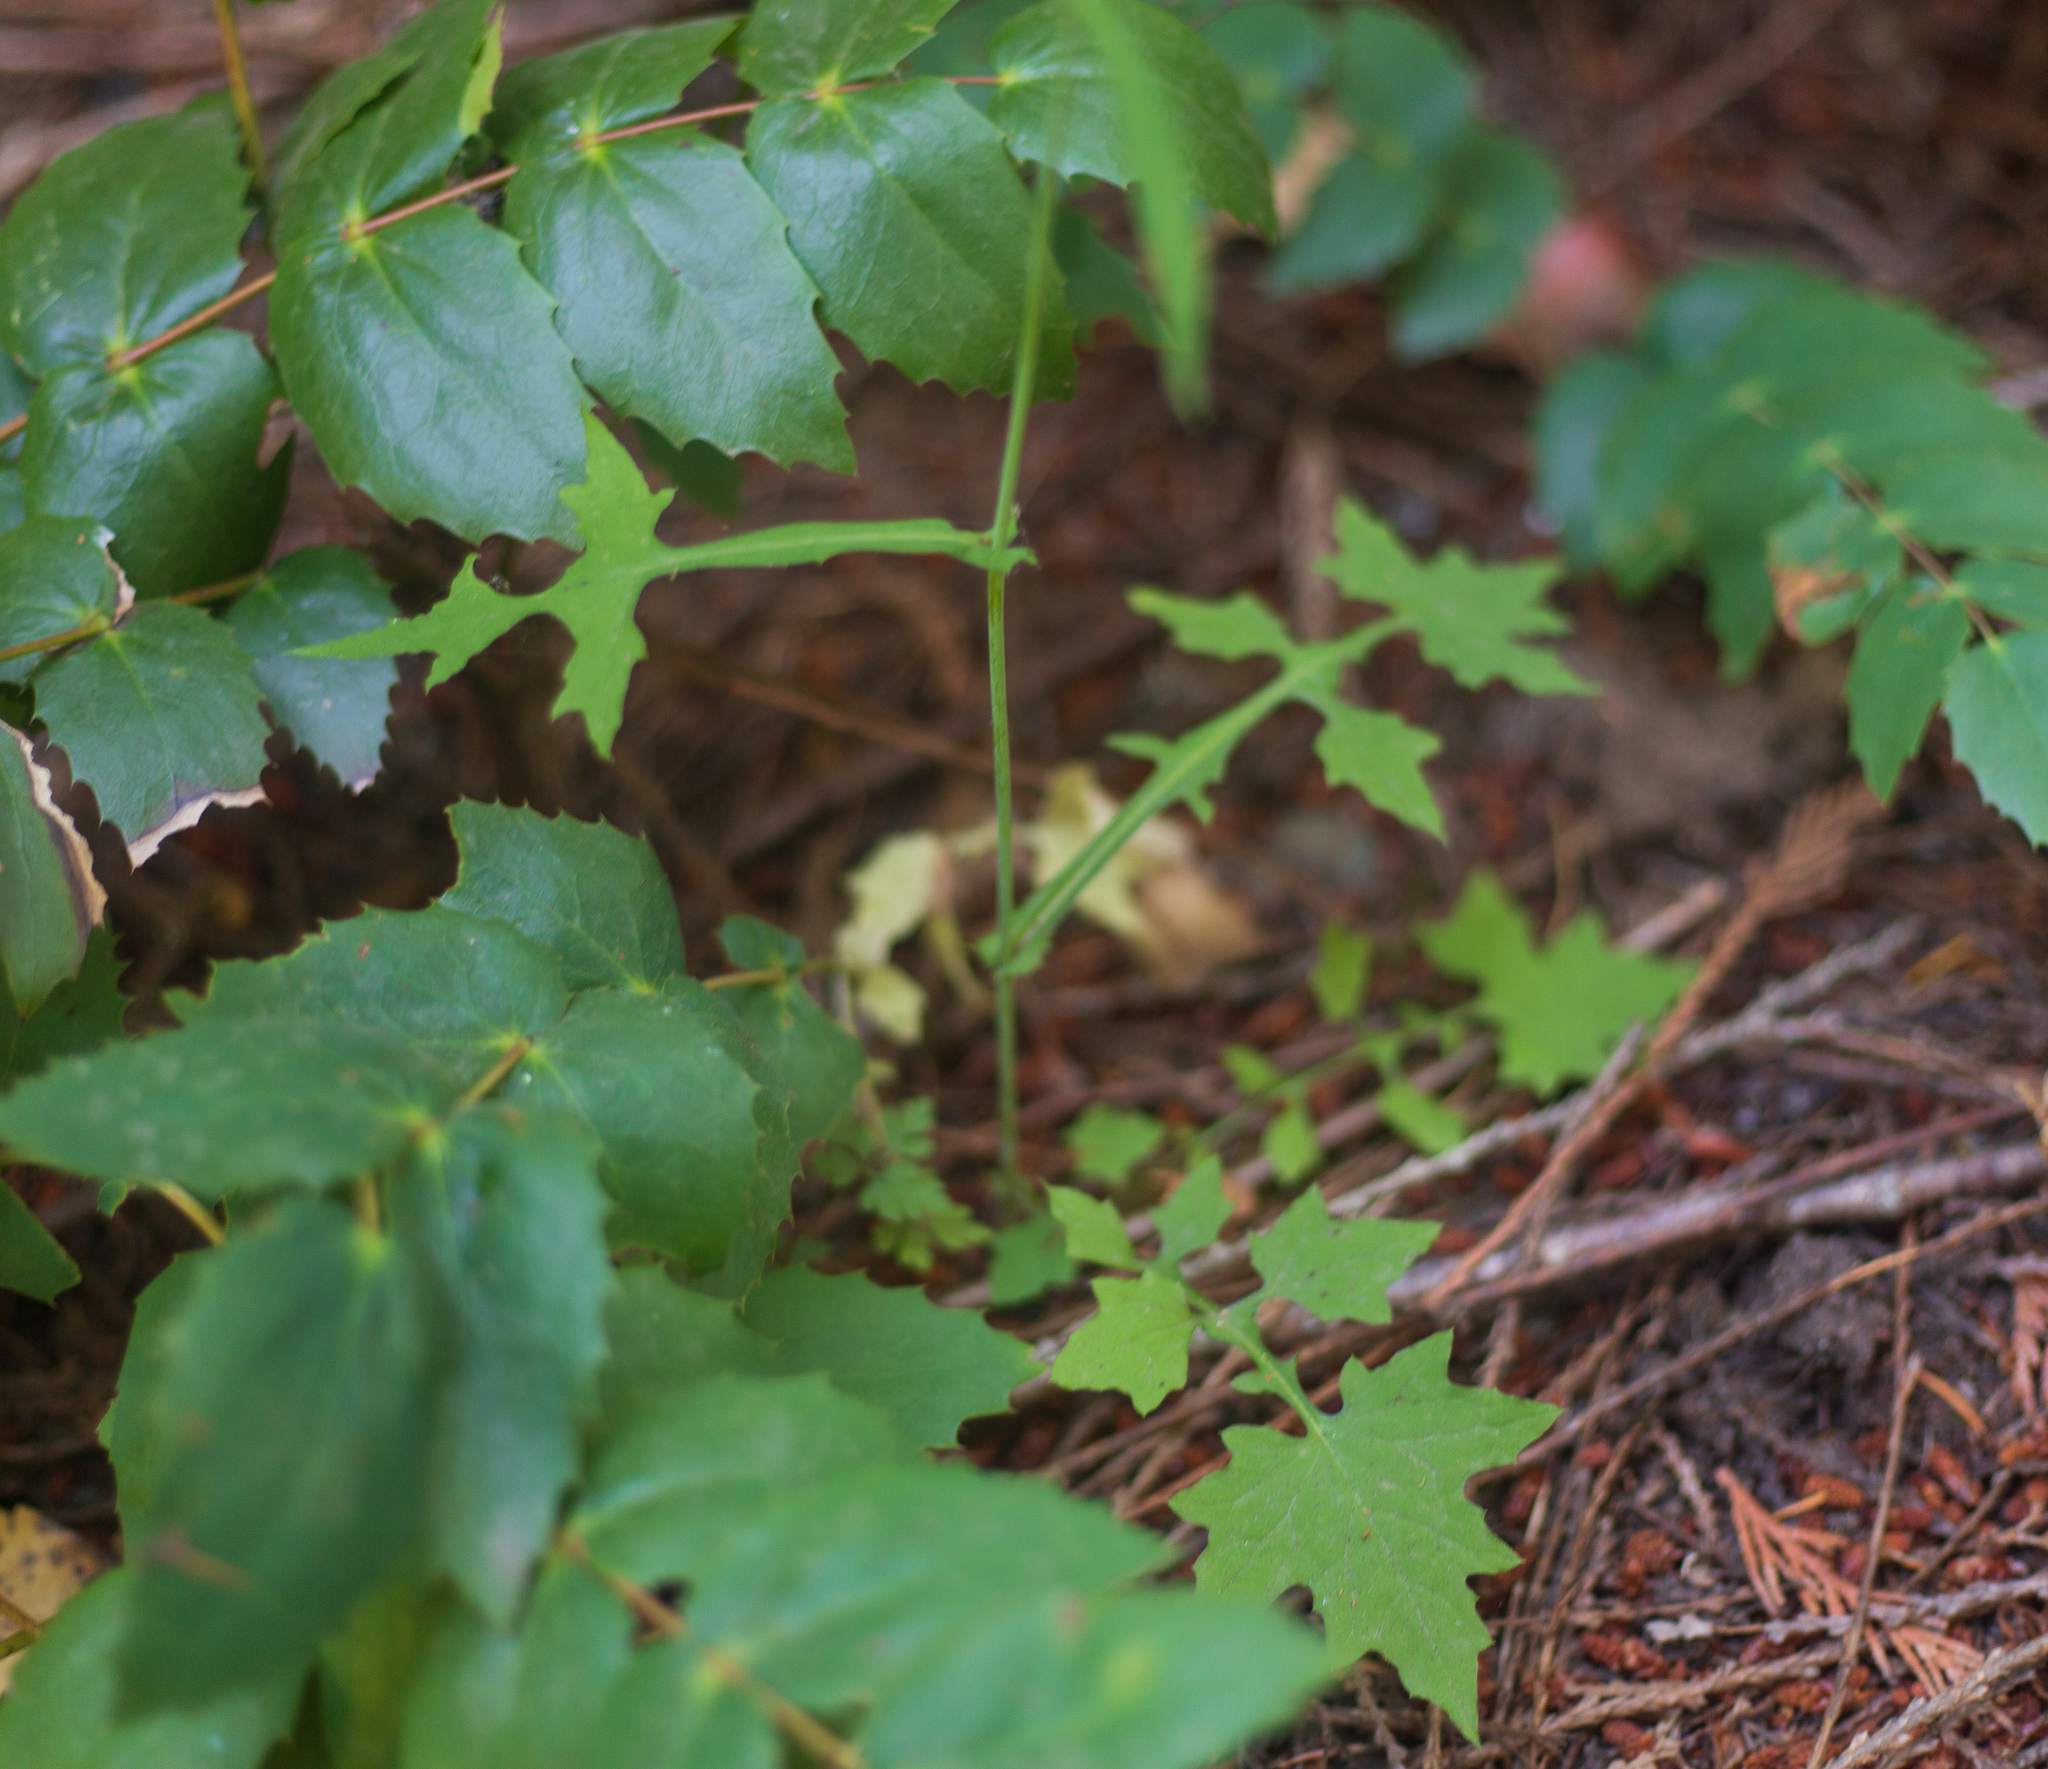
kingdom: Plantae
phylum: Tracheophyta
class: Magnoliopsida
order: Asterales
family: Asteraceae
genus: Mycelis
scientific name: Mycelis muralis
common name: Wall lettuce
